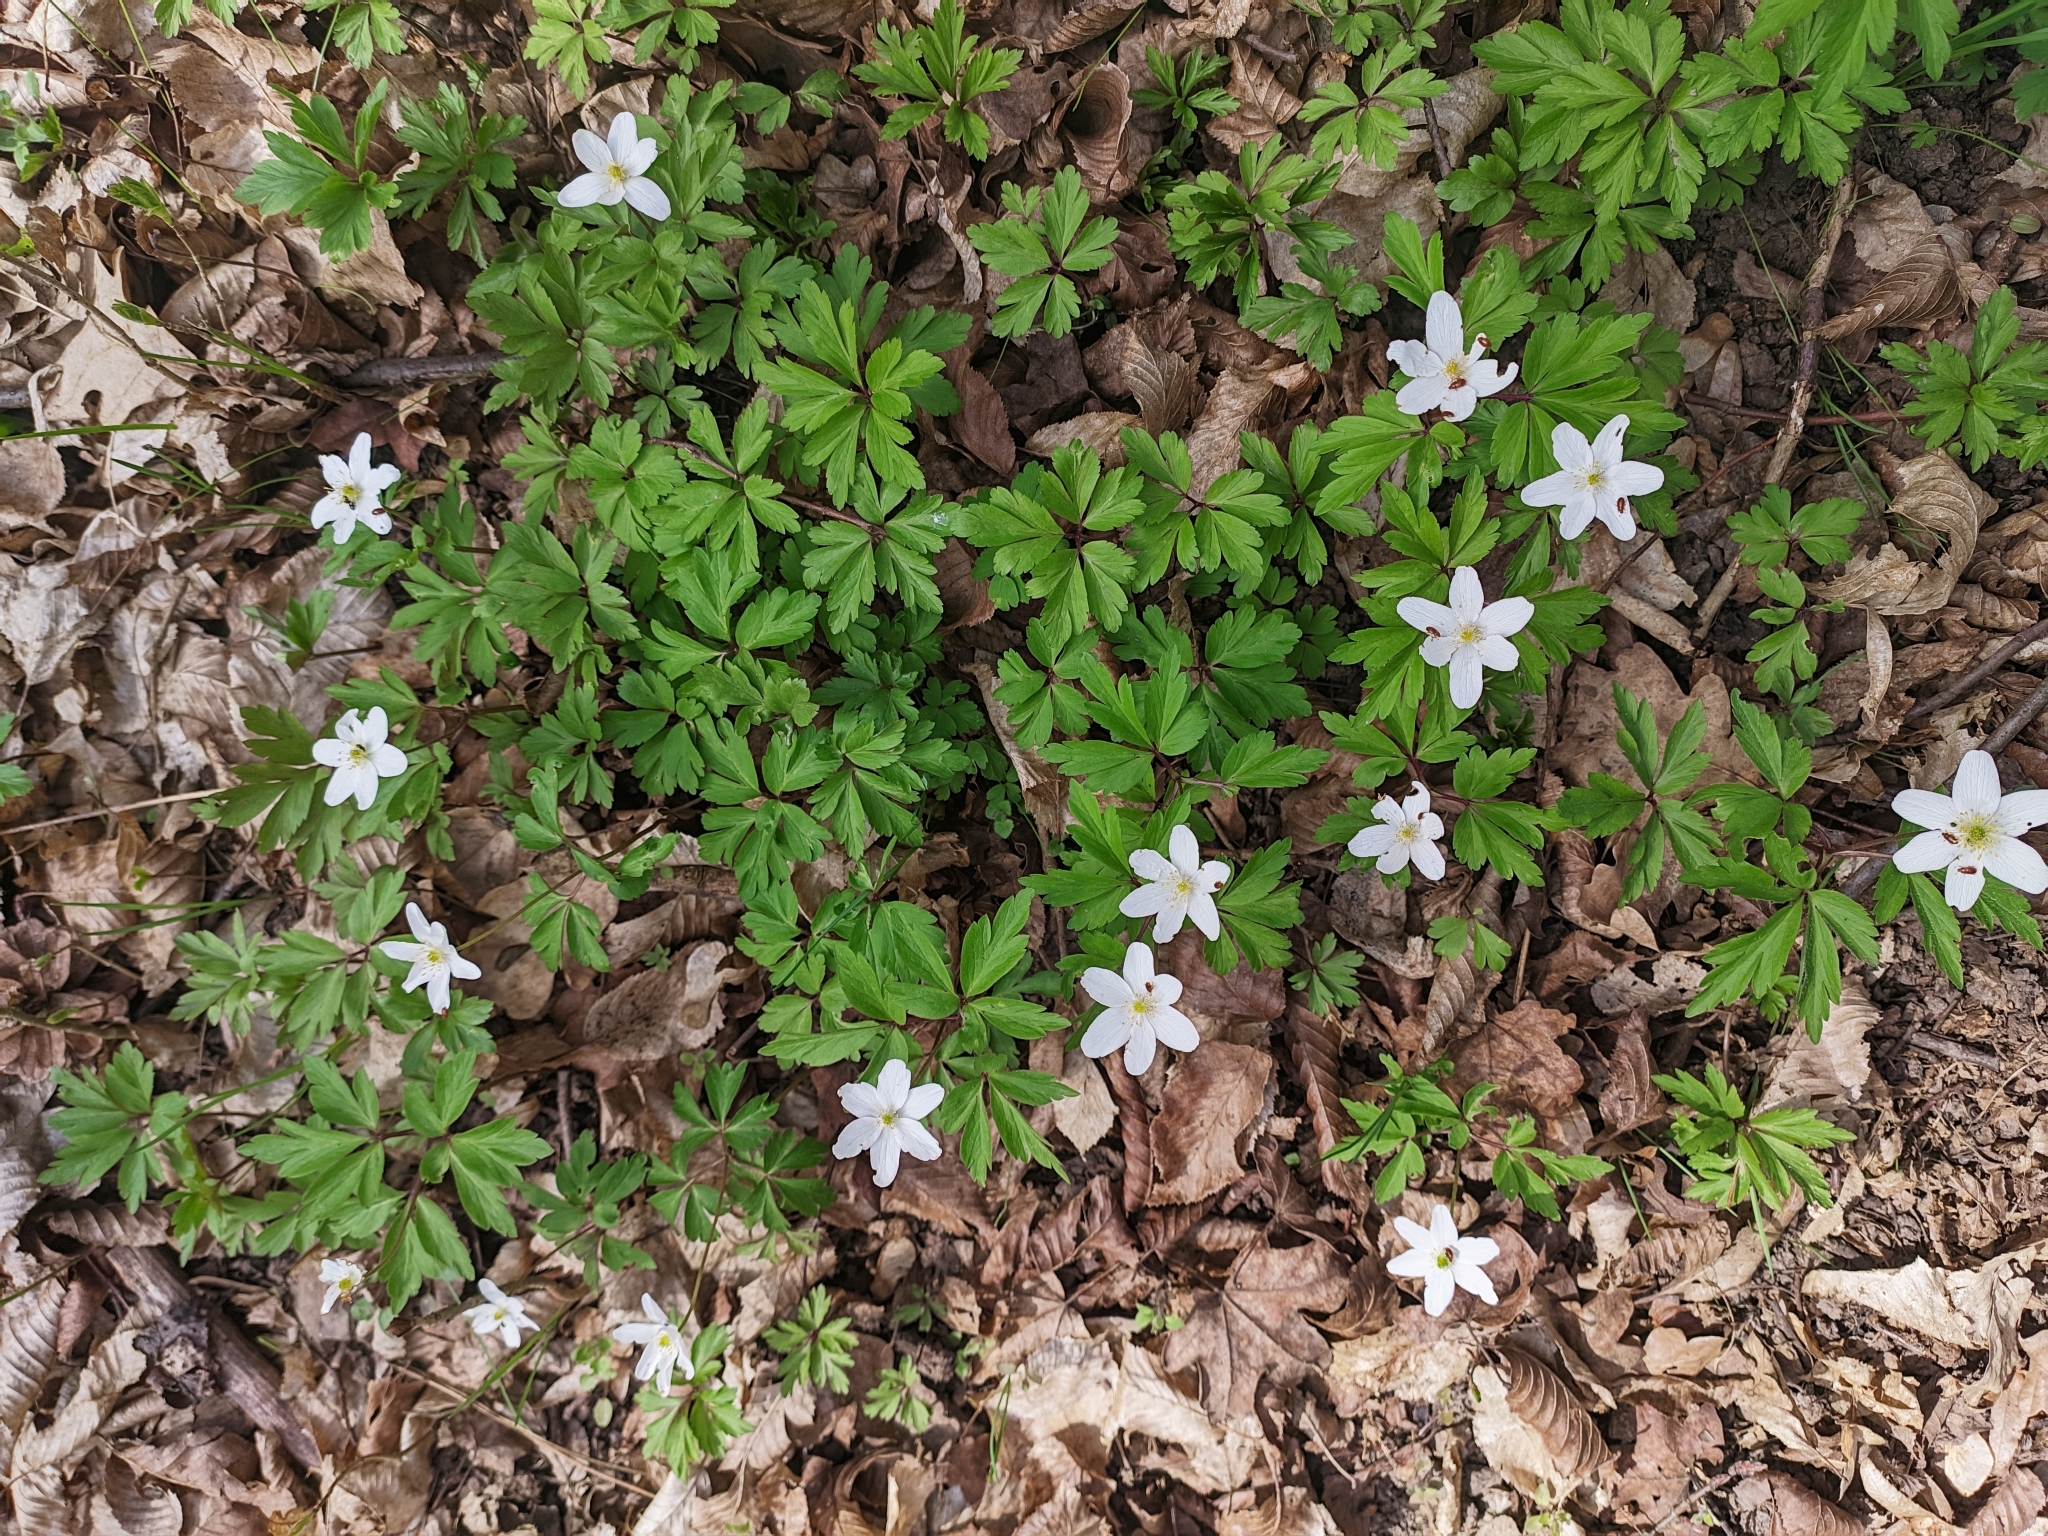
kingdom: Plantae
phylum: Tracheophyta
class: Magnoliopsida
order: Ranunculales
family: Ranunculaceae
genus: Anemone
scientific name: Anemone nemorosa
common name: Wood anemone
